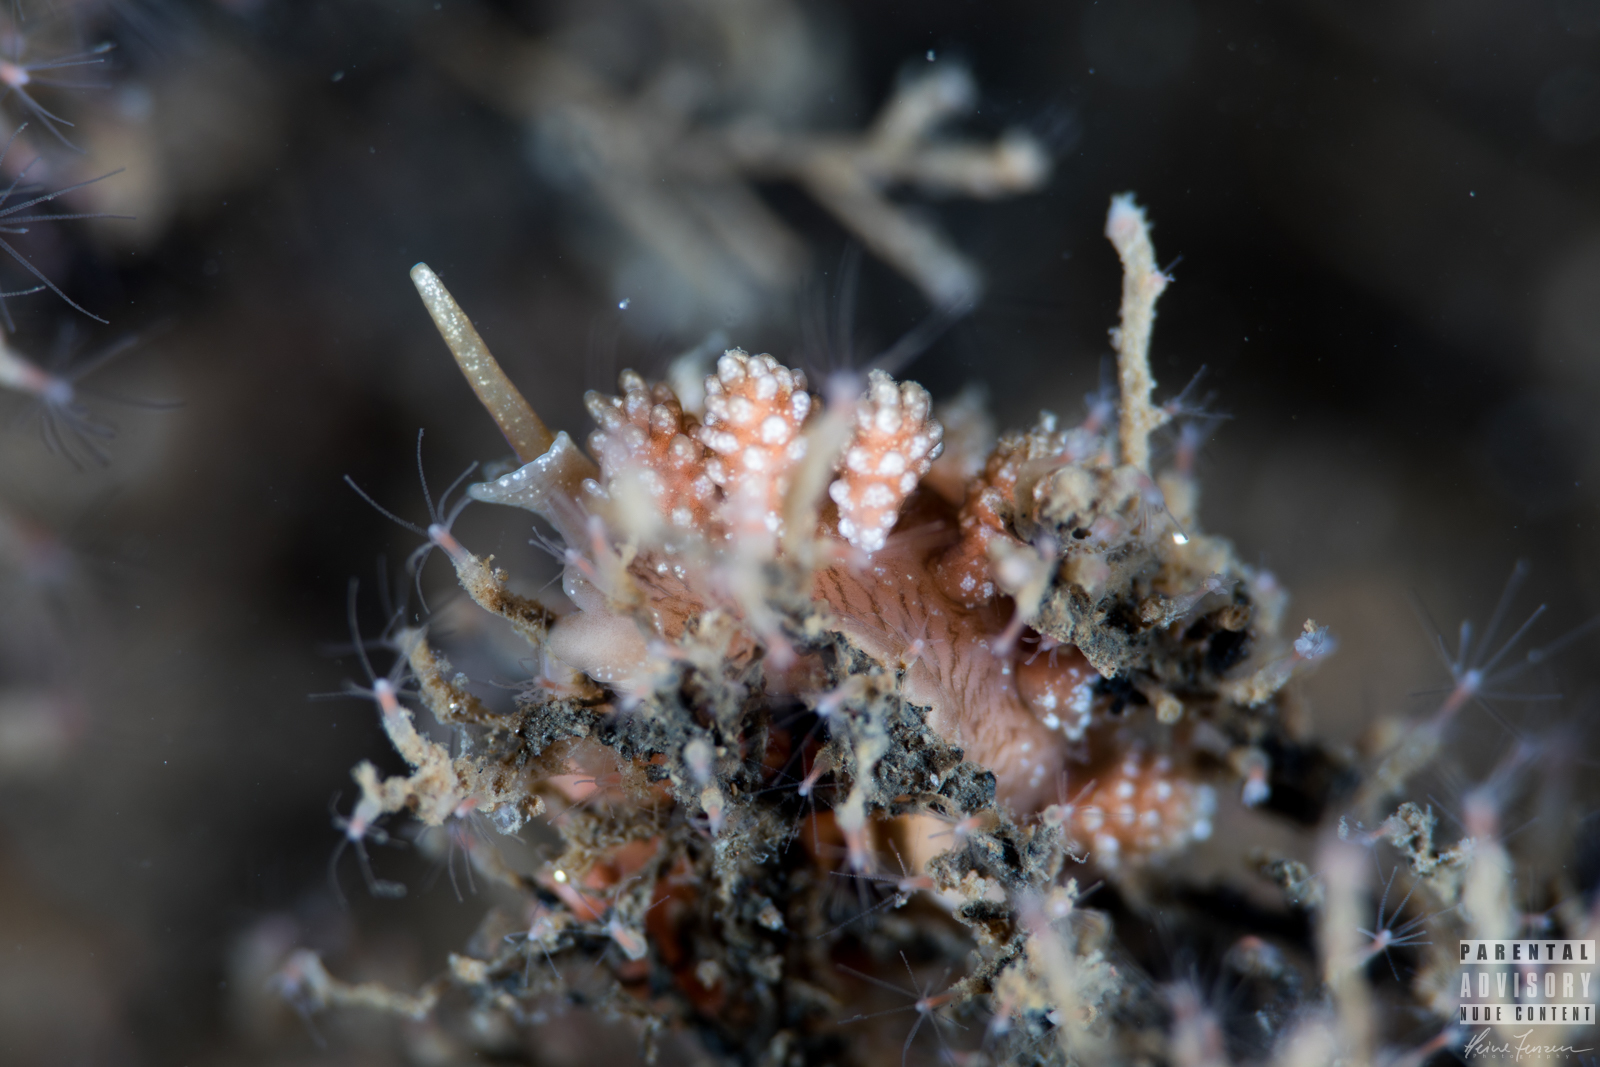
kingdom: Animalia
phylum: Mollusca
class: Gastropoda
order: Nudibranchia
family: Dotidae
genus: Doto
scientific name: Doto fragilis
